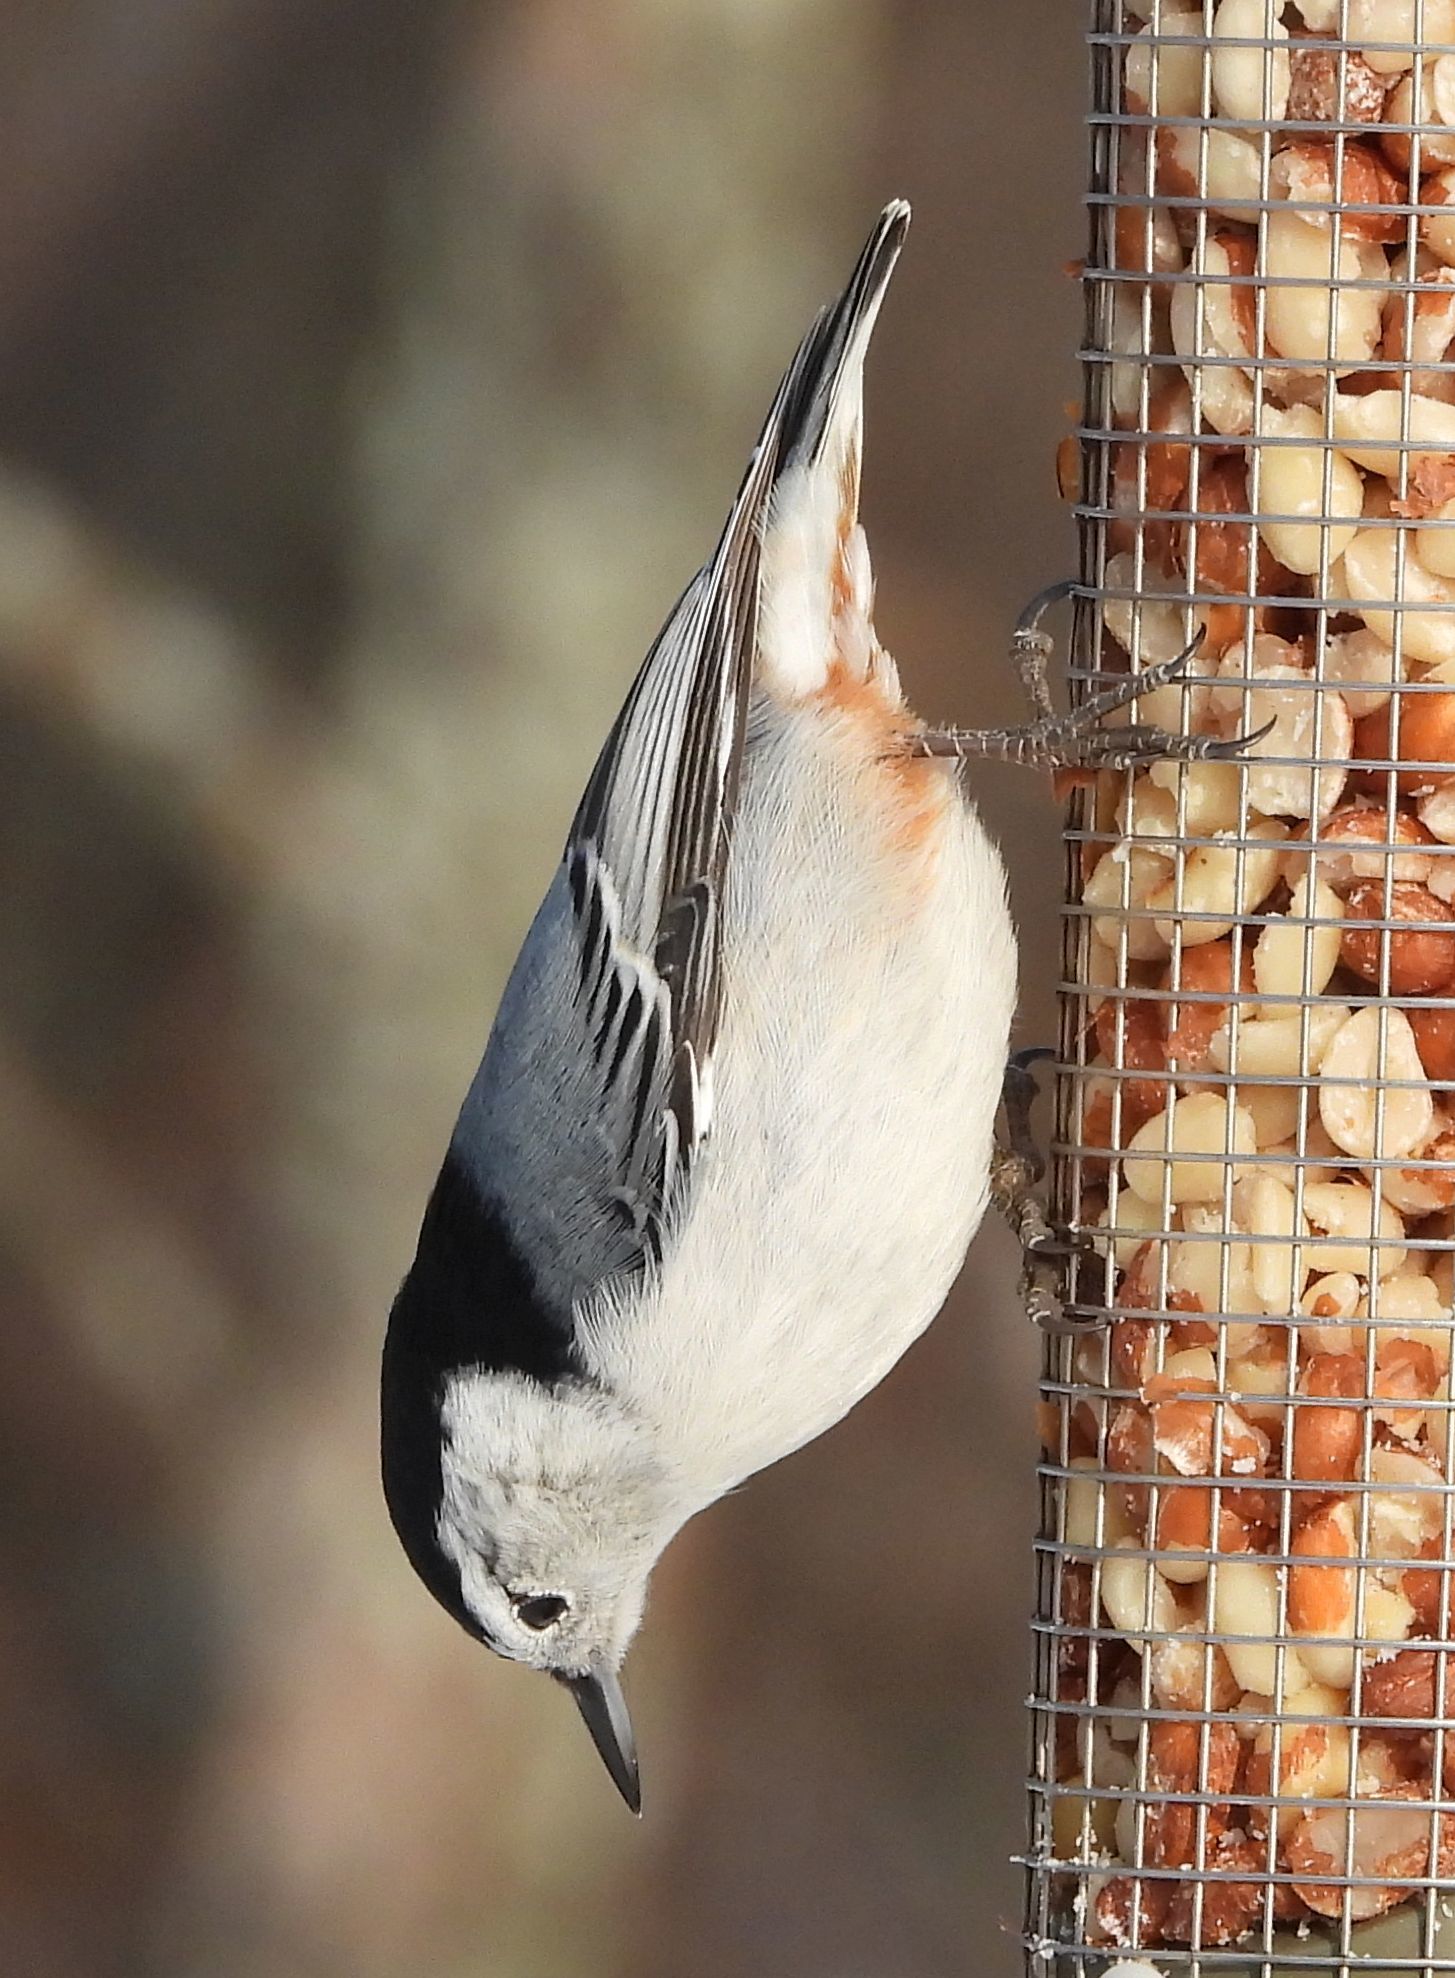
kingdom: Animalia
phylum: Chordata
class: Aves
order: Passeriformes
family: Sittidae
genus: Sitta
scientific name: Sitta carolinensis
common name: White-breasted nuthatch
